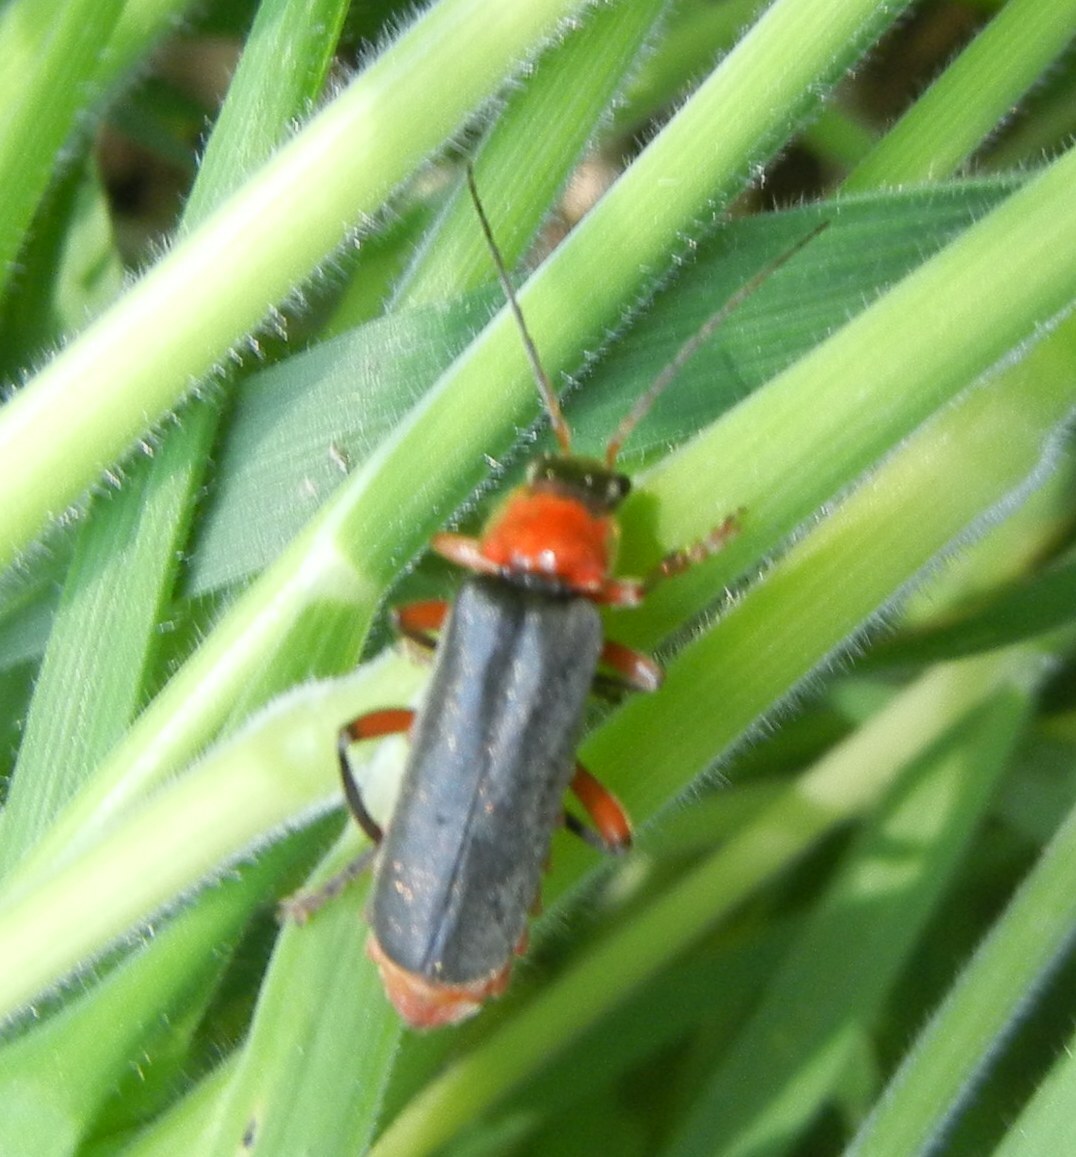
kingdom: Animalia
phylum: Arthropoda
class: Insecta
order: Coleoptera
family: Cantharidae
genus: Cantharis
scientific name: Cantharis pellucida
